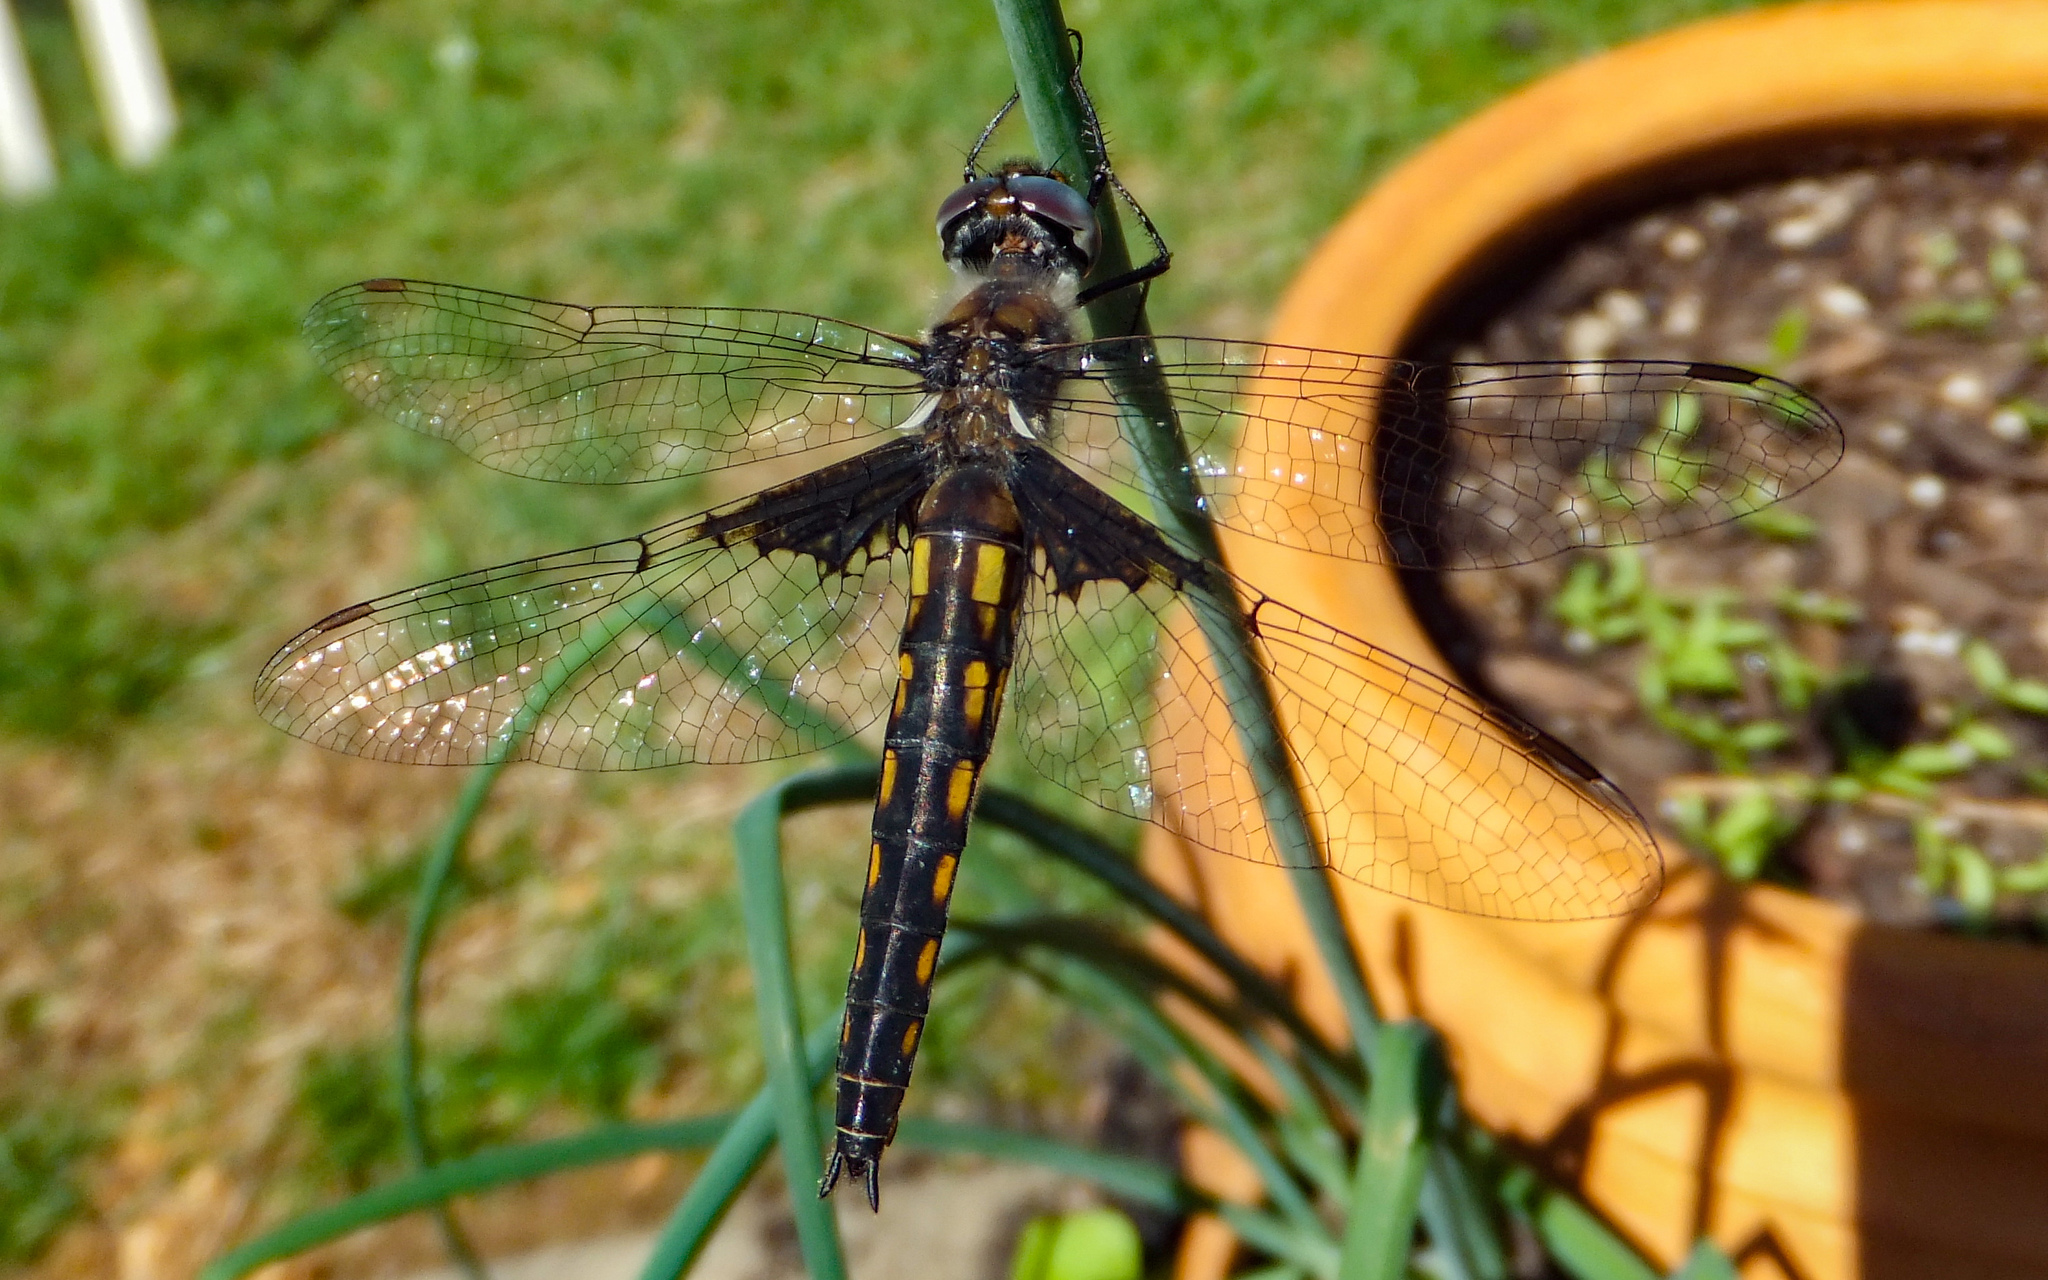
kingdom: Animalia
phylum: Arthropoda
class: Insecta
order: Odonata
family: Corduliidae
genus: Epitheca
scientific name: Epitheca cynosura
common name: Common baskettail
